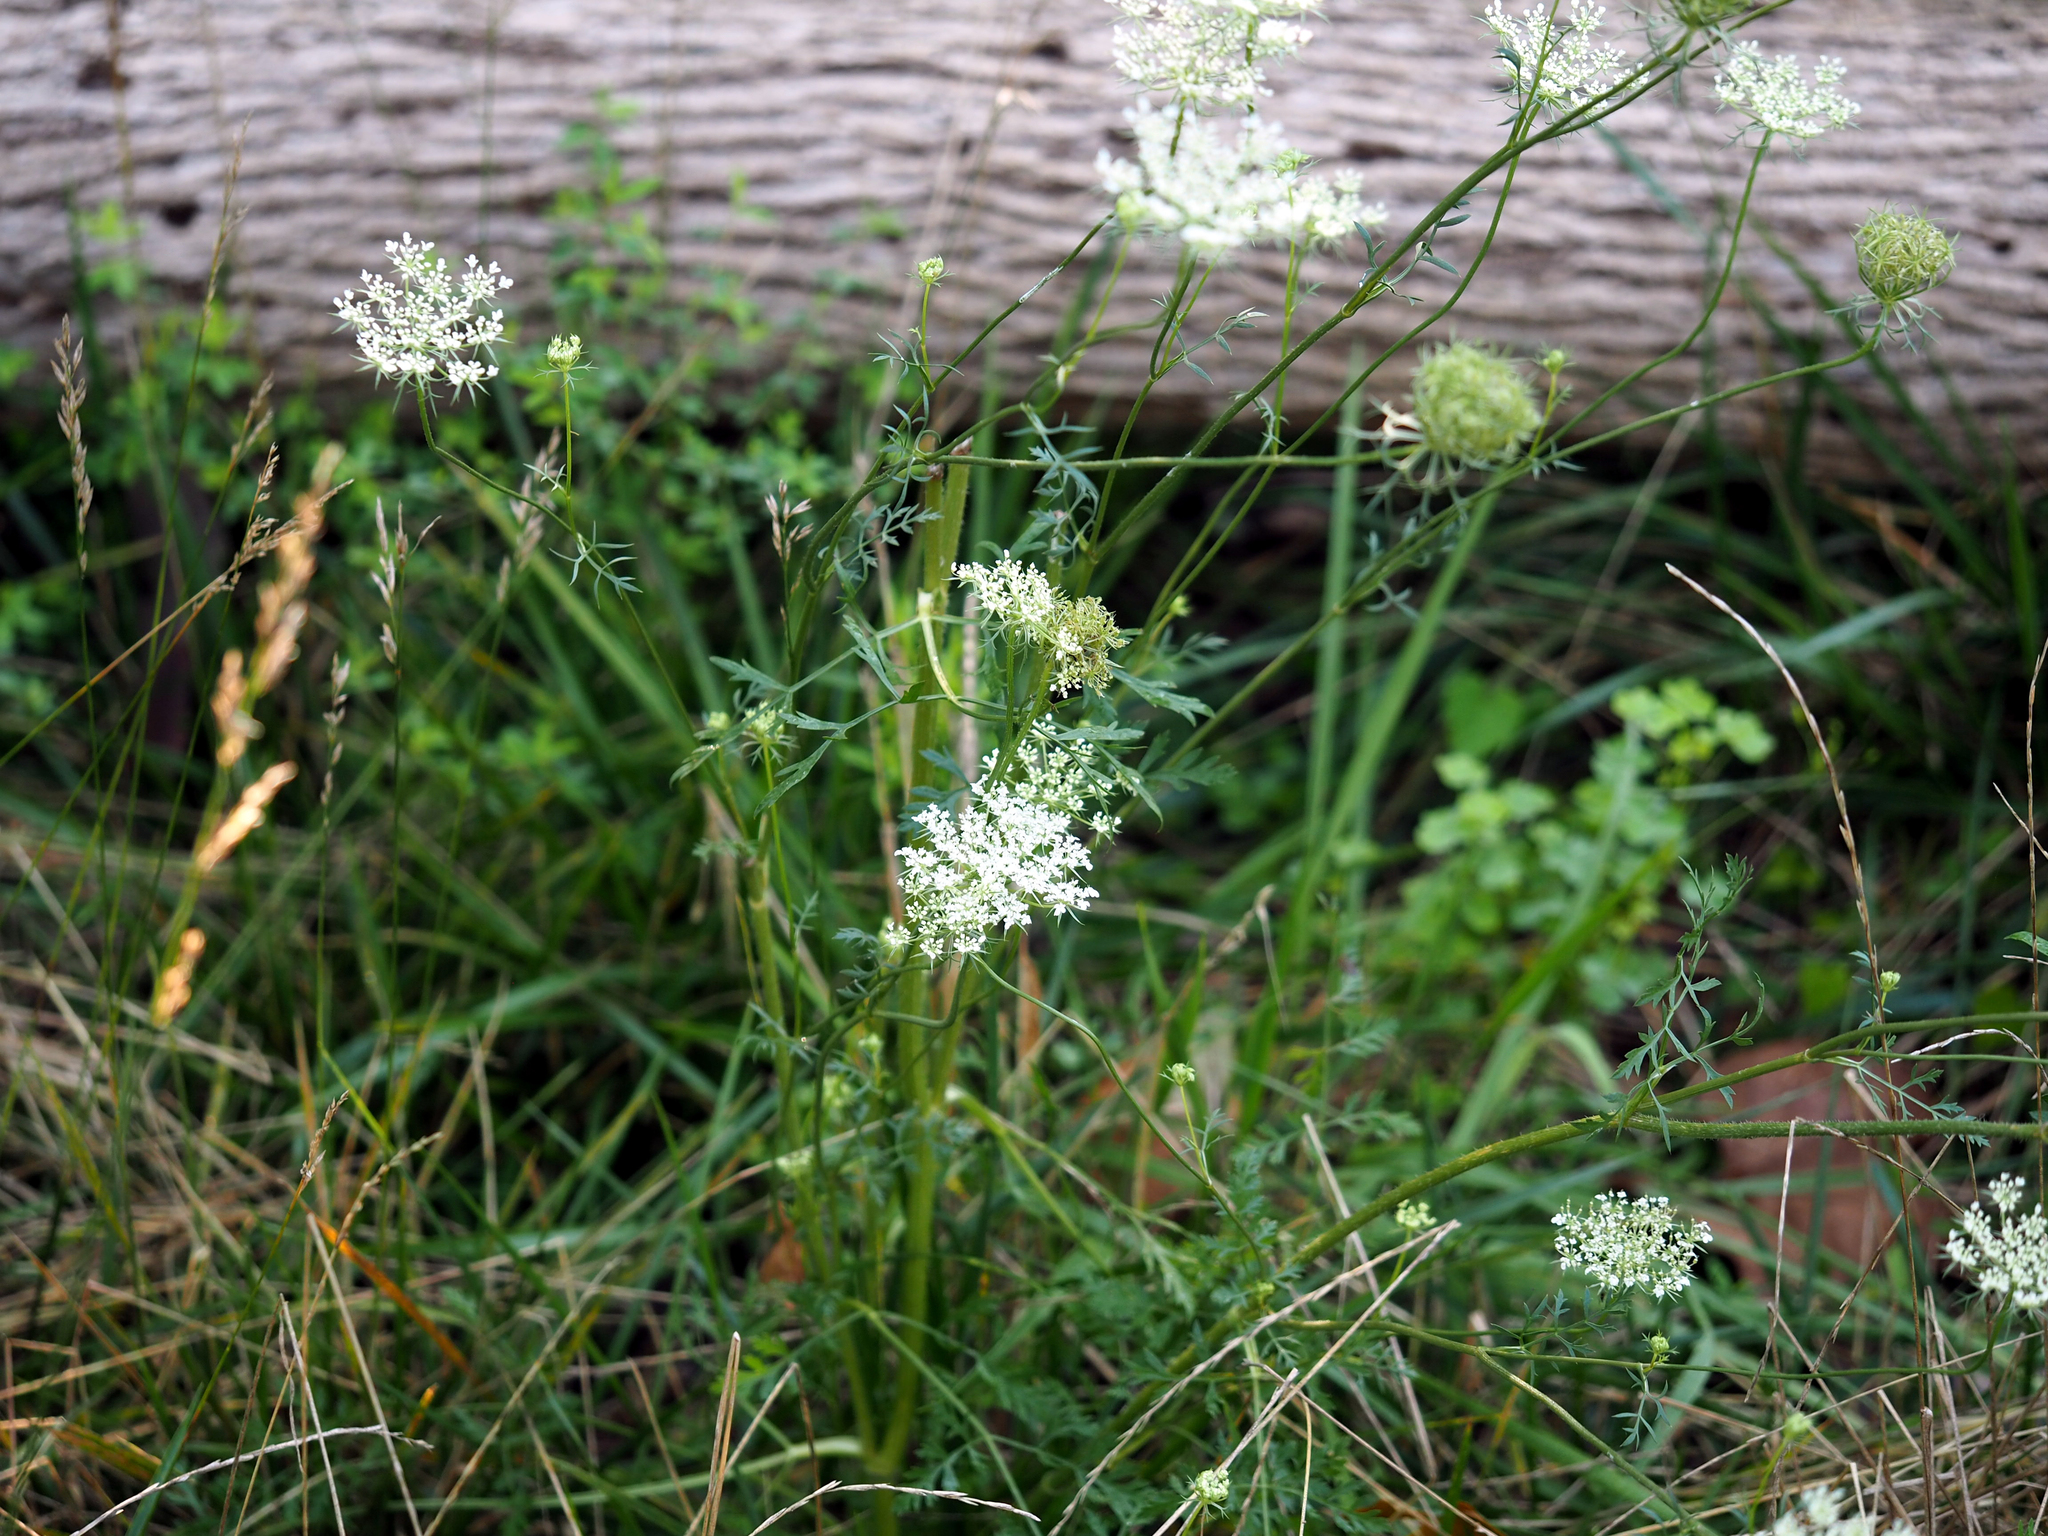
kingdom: Plantae
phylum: Tracheophyta
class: Magnoliopsida
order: Apiales
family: Apiaceae
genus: Daucus
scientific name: Daucus carota
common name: Wild carrot
